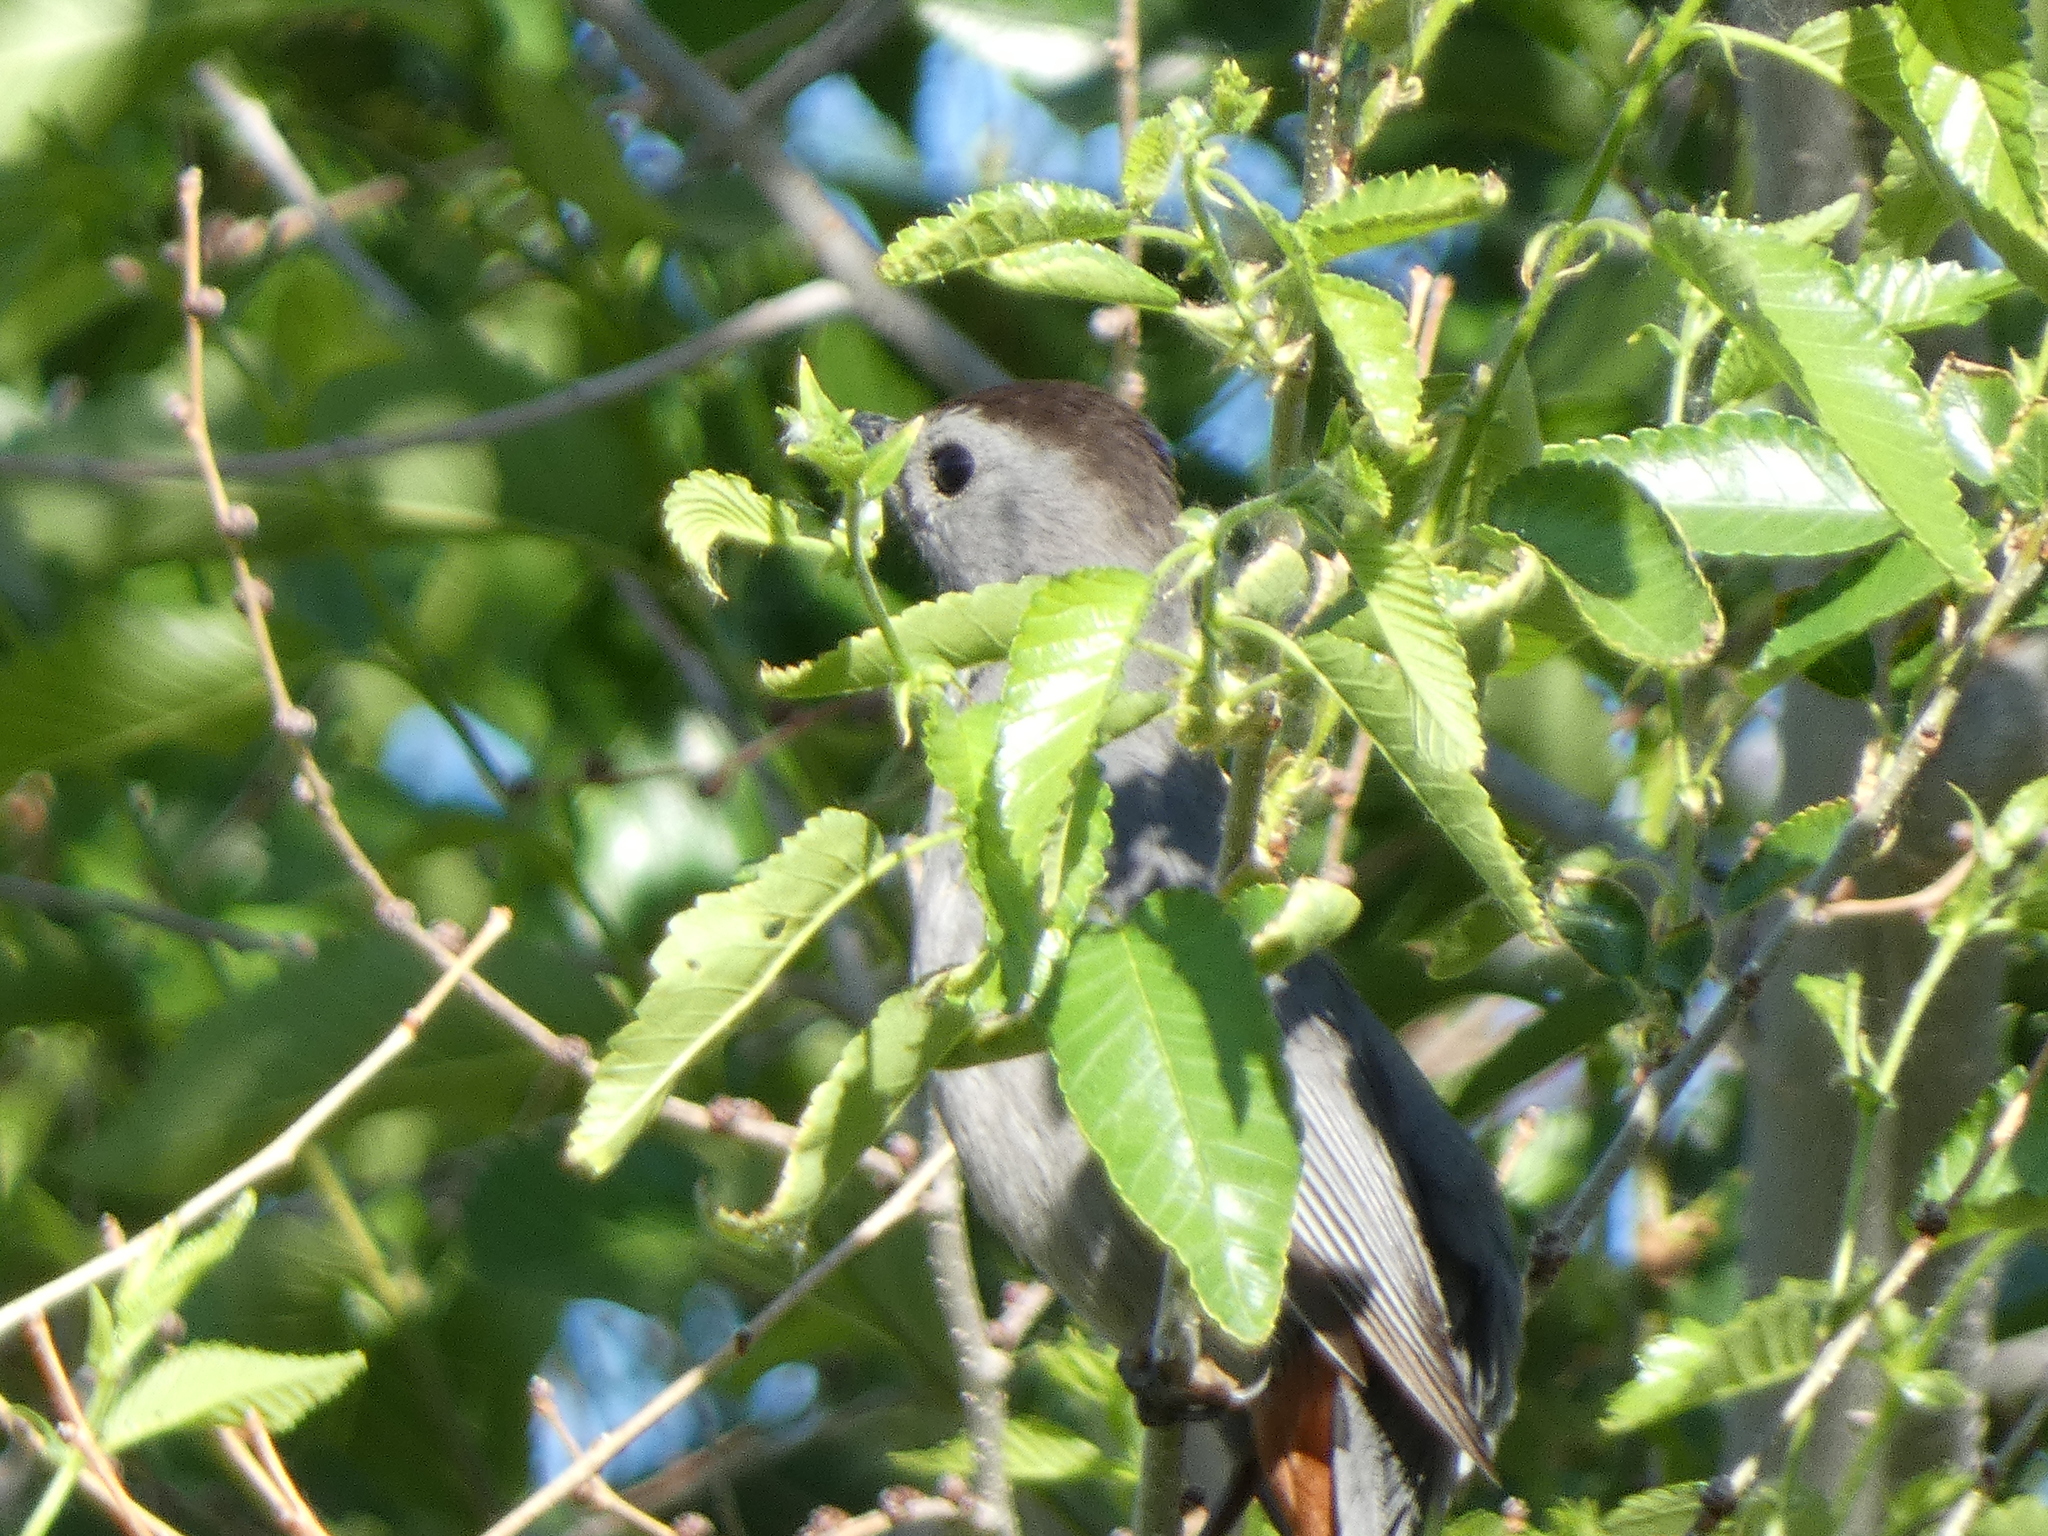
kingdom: Animalia
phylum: Chordata
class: Aves
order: Passeriformes
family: Mimidae
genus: Dumetella
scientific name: Dumetella carolinensis
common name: Gray catbird
